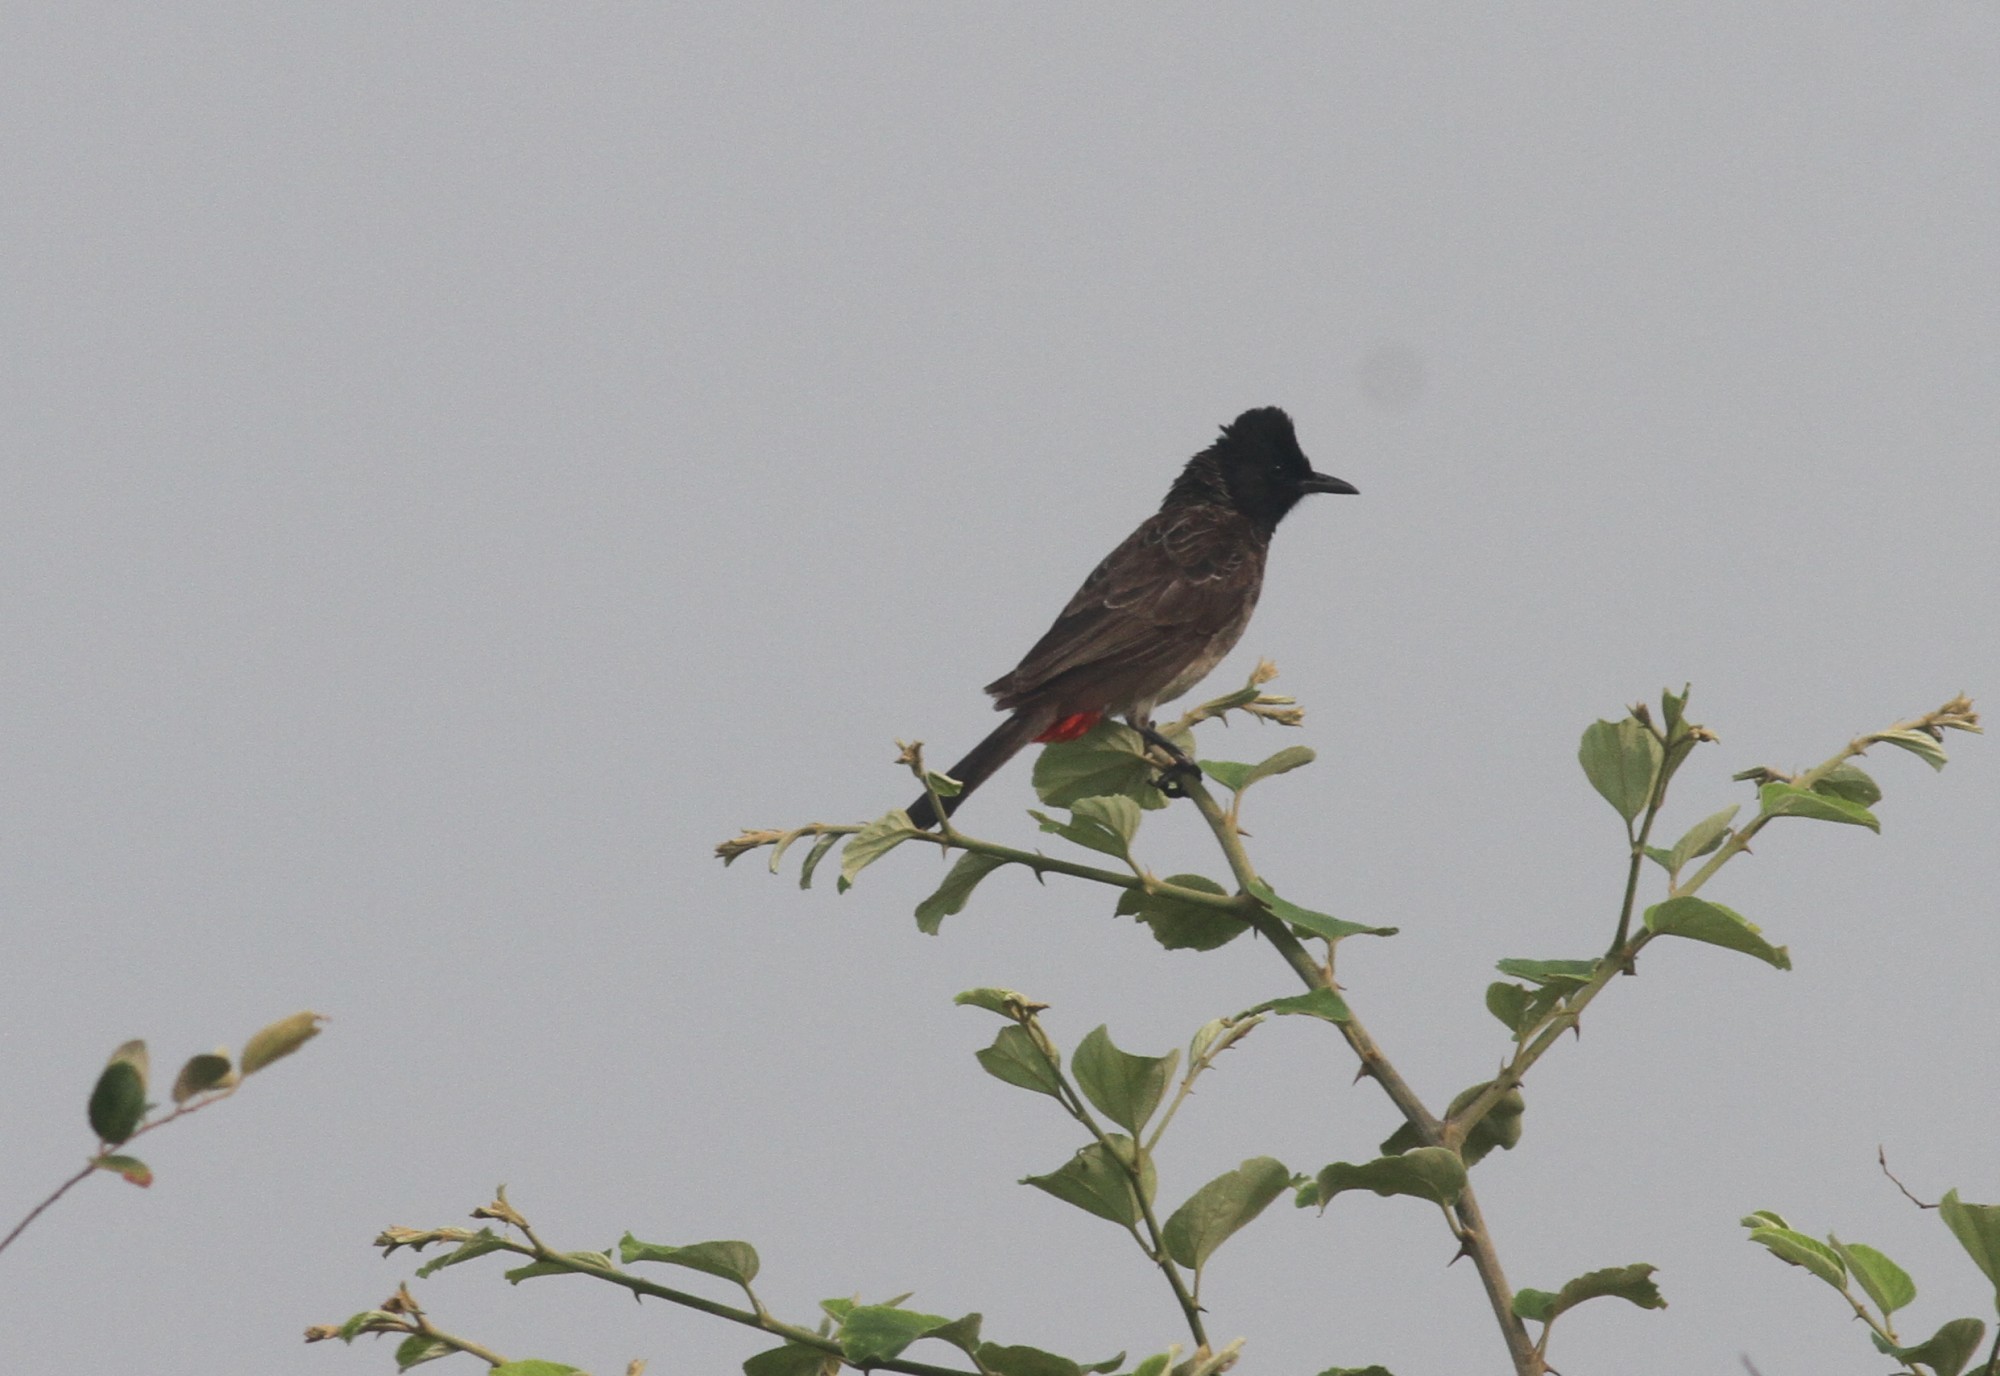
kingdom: Animalia
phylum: Chordata
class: Aves
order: Passeriformes
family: Pycnonotidae
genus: Pycnonotus
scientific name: Pycnonotus cafer
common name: Red-vented bulbul
